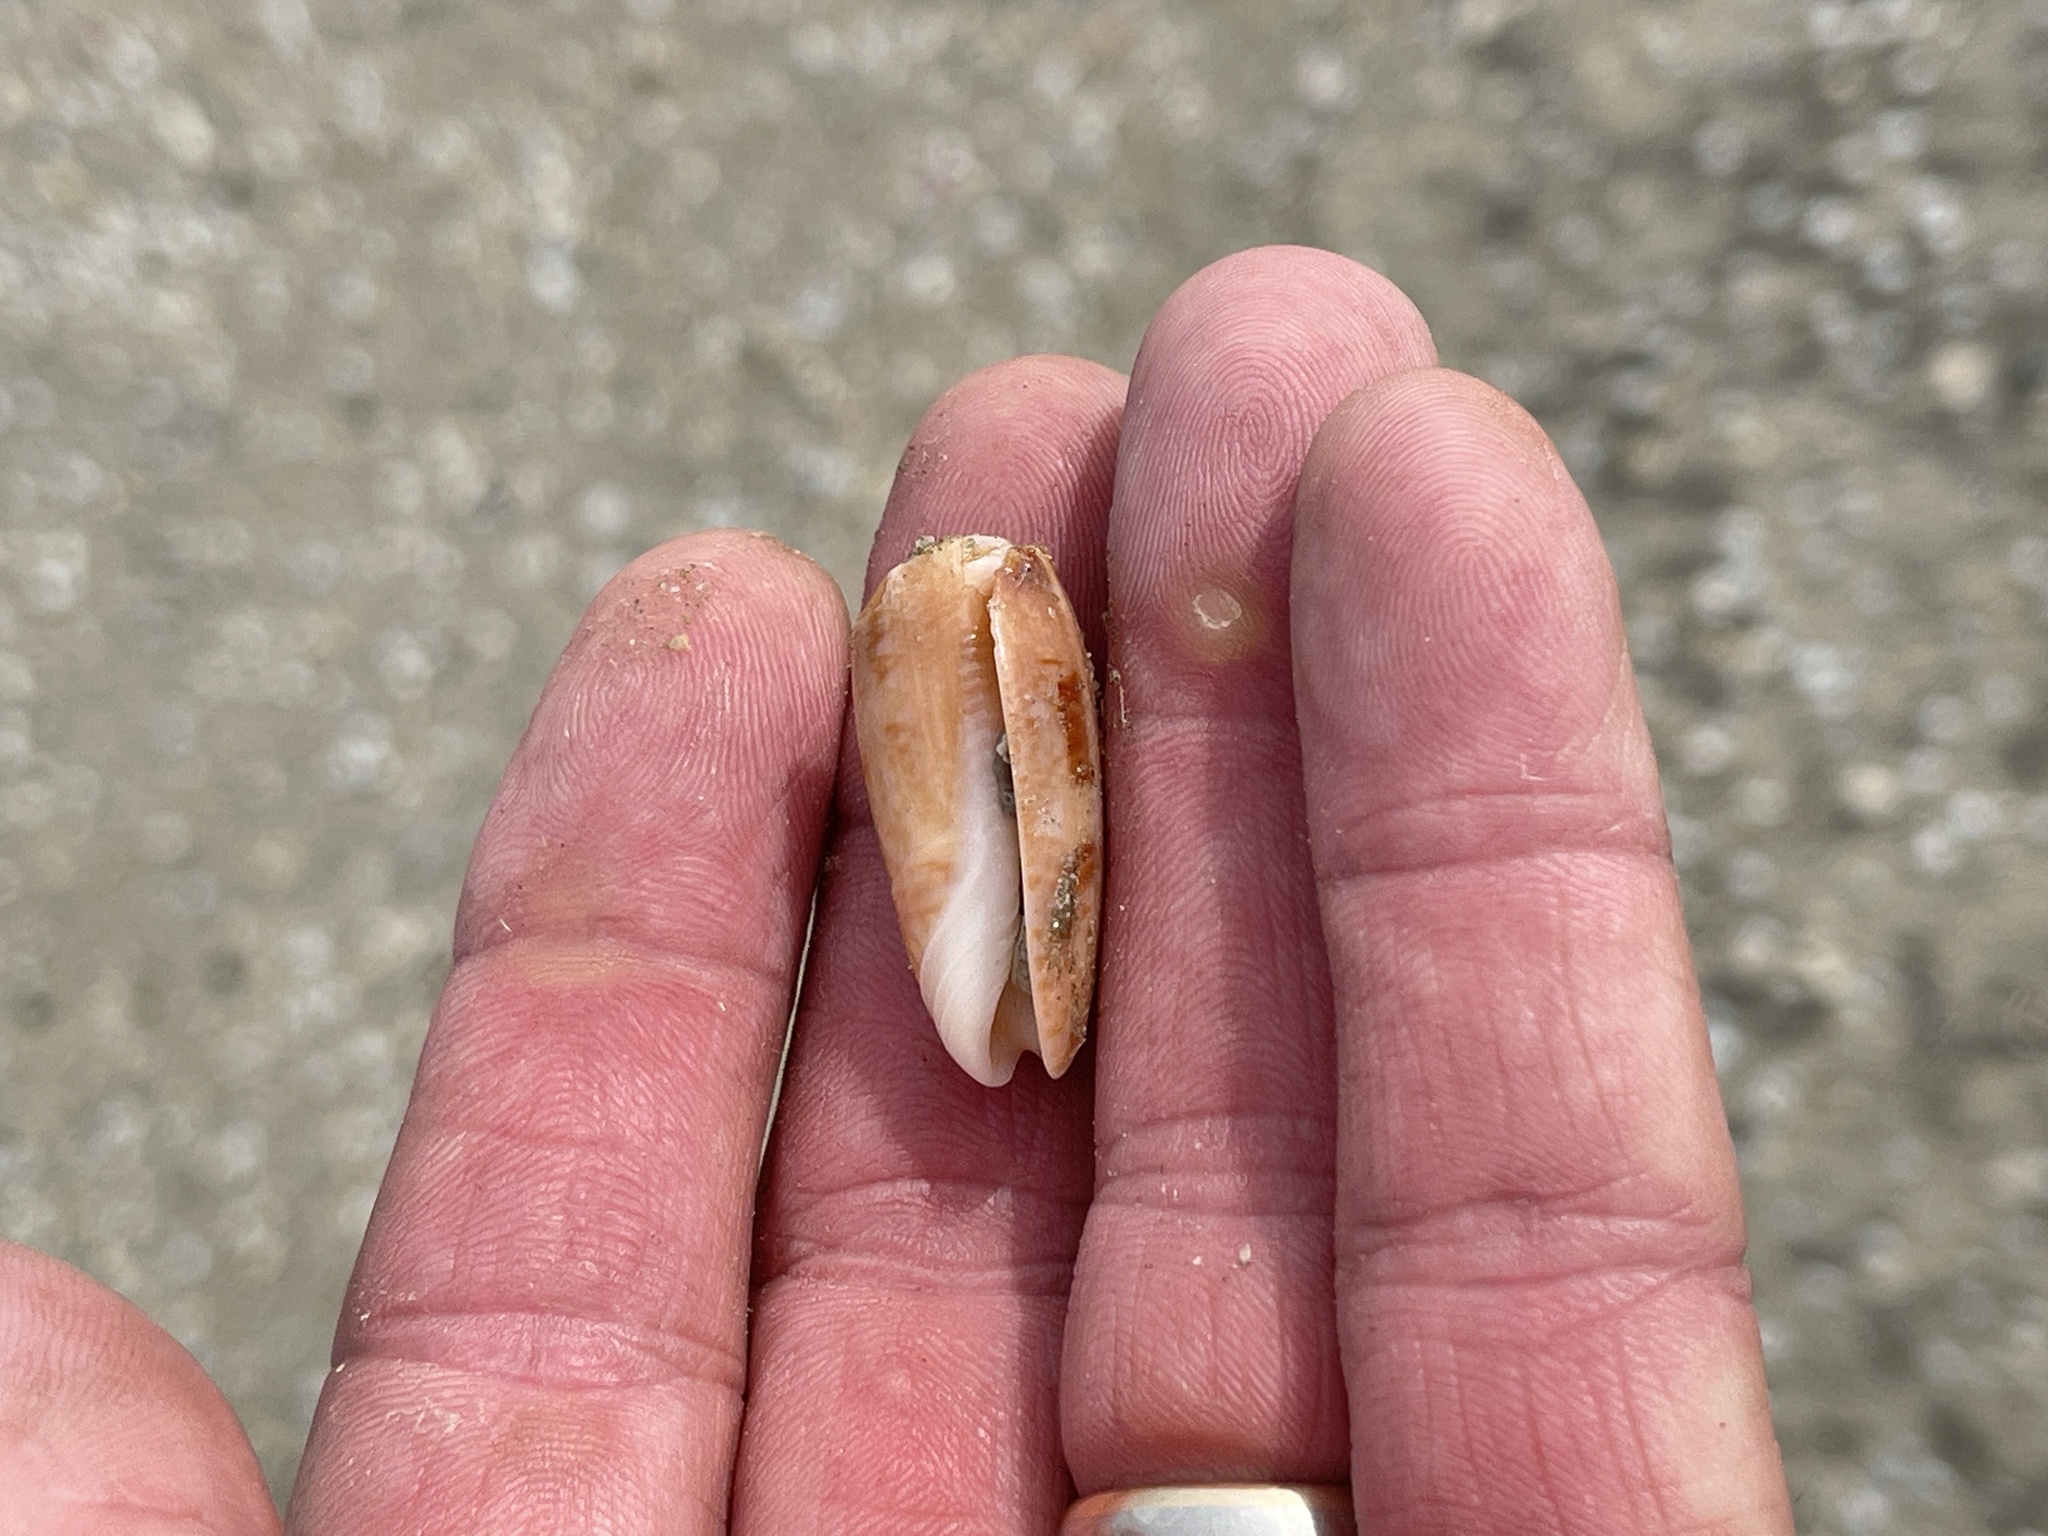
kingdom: Animalia
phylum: Mollusca
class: Gastropoda
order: Neogastropoda
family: Olividae
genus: Oliva
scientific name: Oliva sayana
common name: Lettered olive
